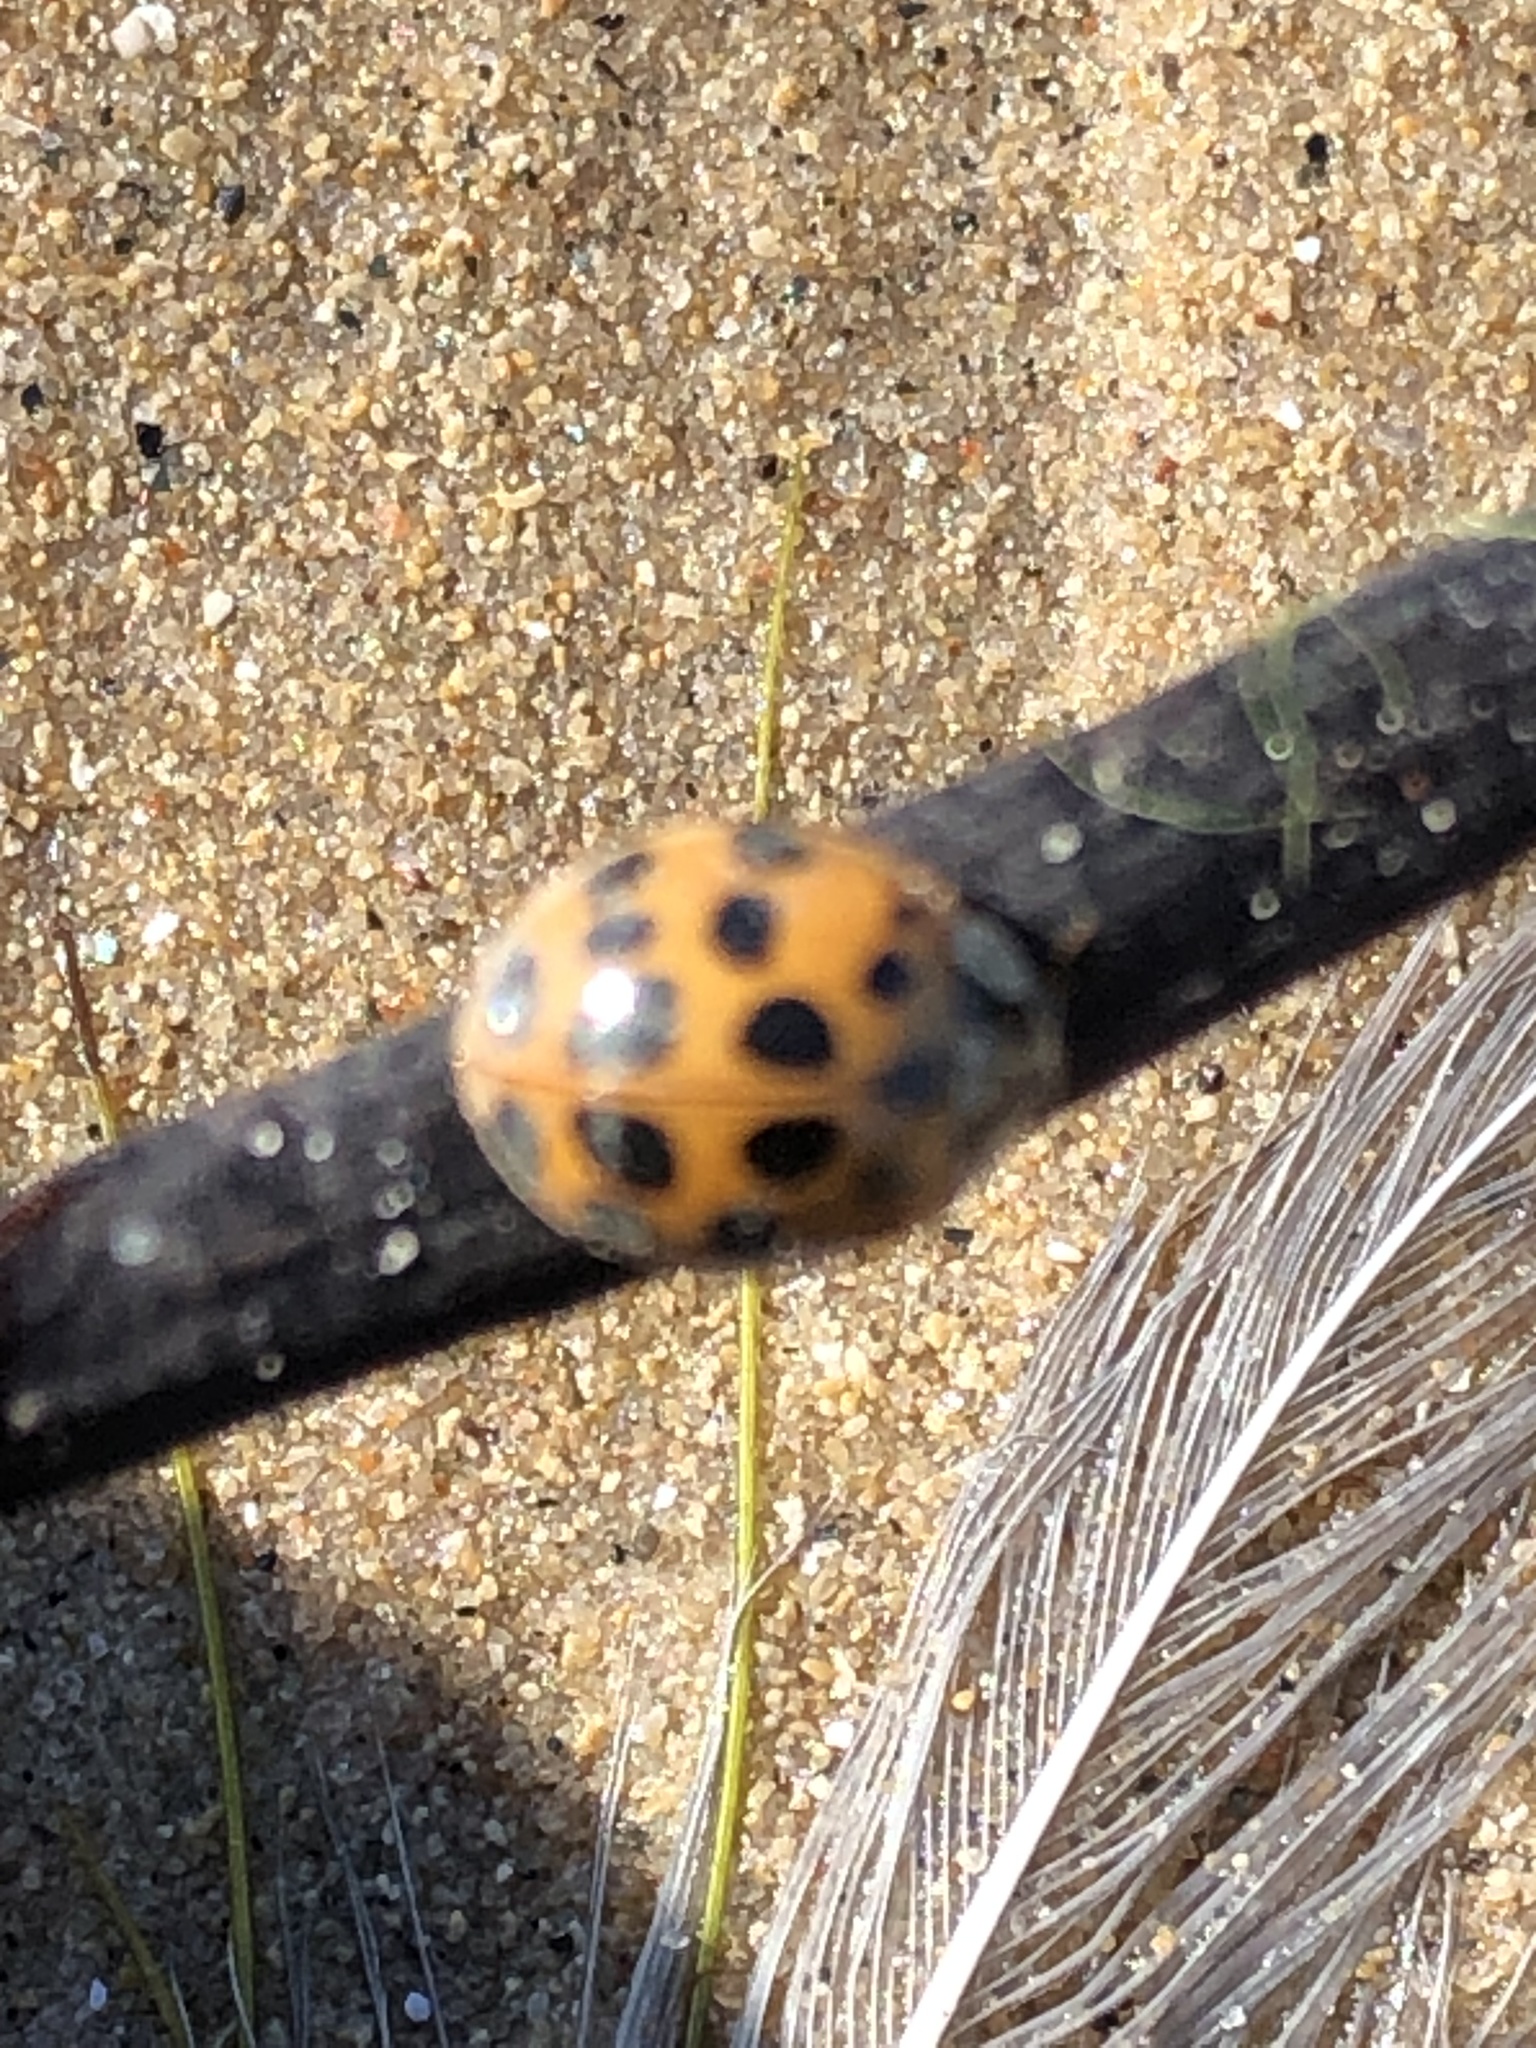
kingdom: Animalia
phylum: Arthropoda
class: Insecta
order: Coleoptera
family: Coccinellidae
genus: Harmonia
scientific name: Harmonia axyridis
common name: Harlequin ladybird
